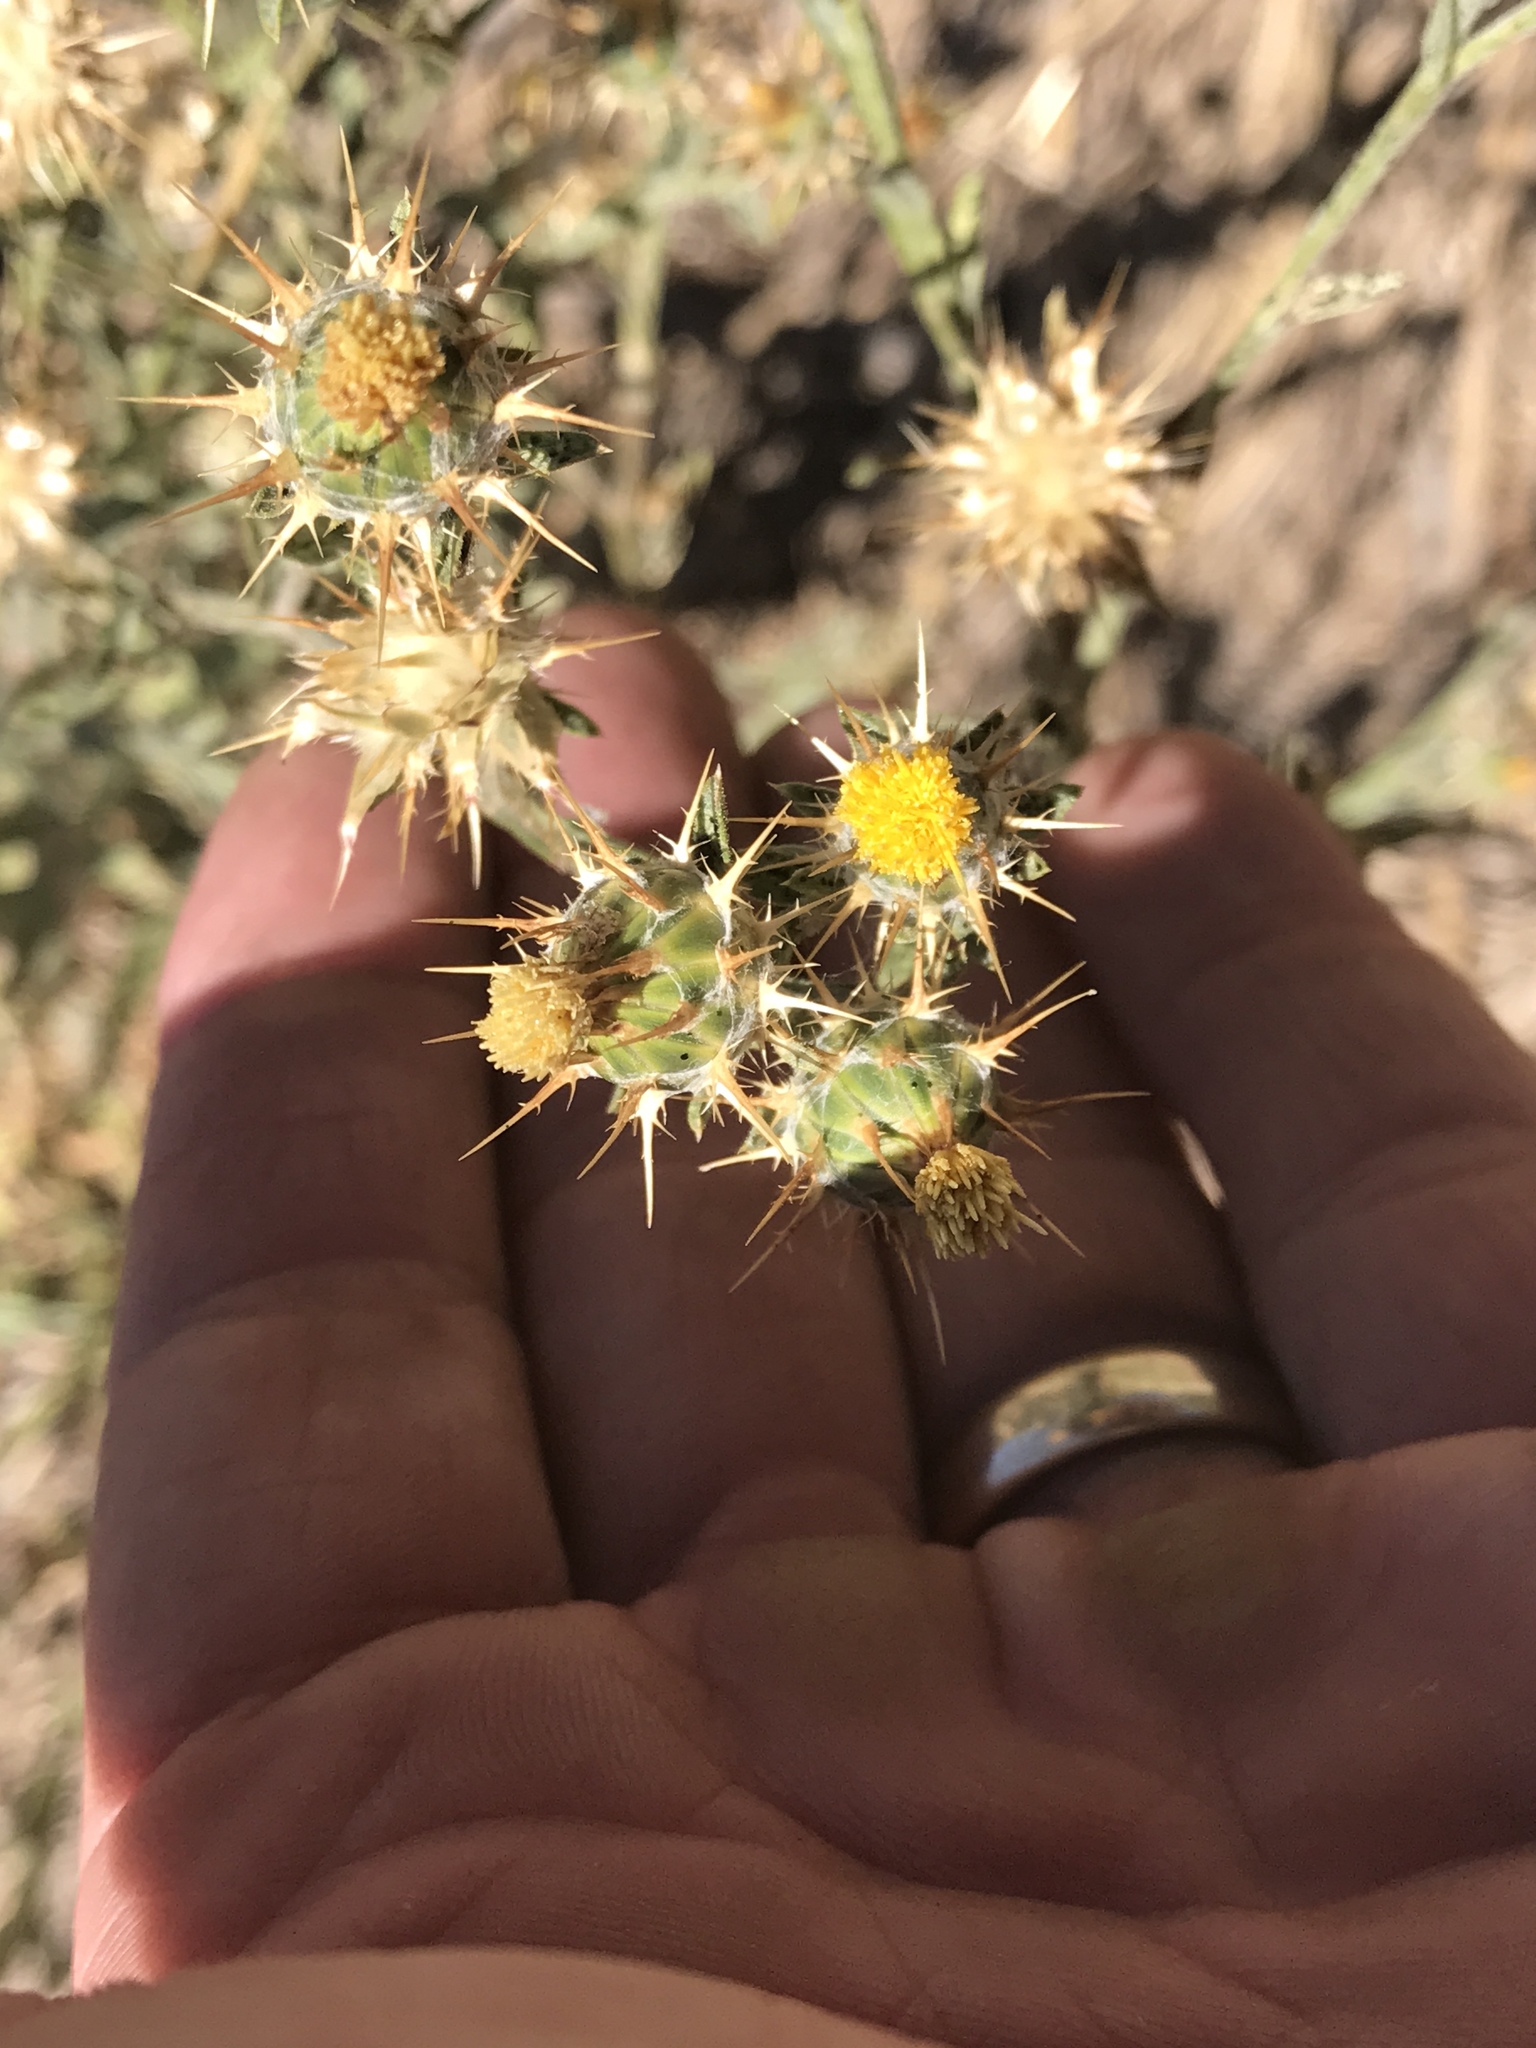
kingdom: Plantae
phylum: Tracheophyta
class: Magnoliopsida
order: Asterales
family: Asteraceae
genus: Centaurea
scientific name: Centaurea melitensis
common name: Maltese star-thistle
